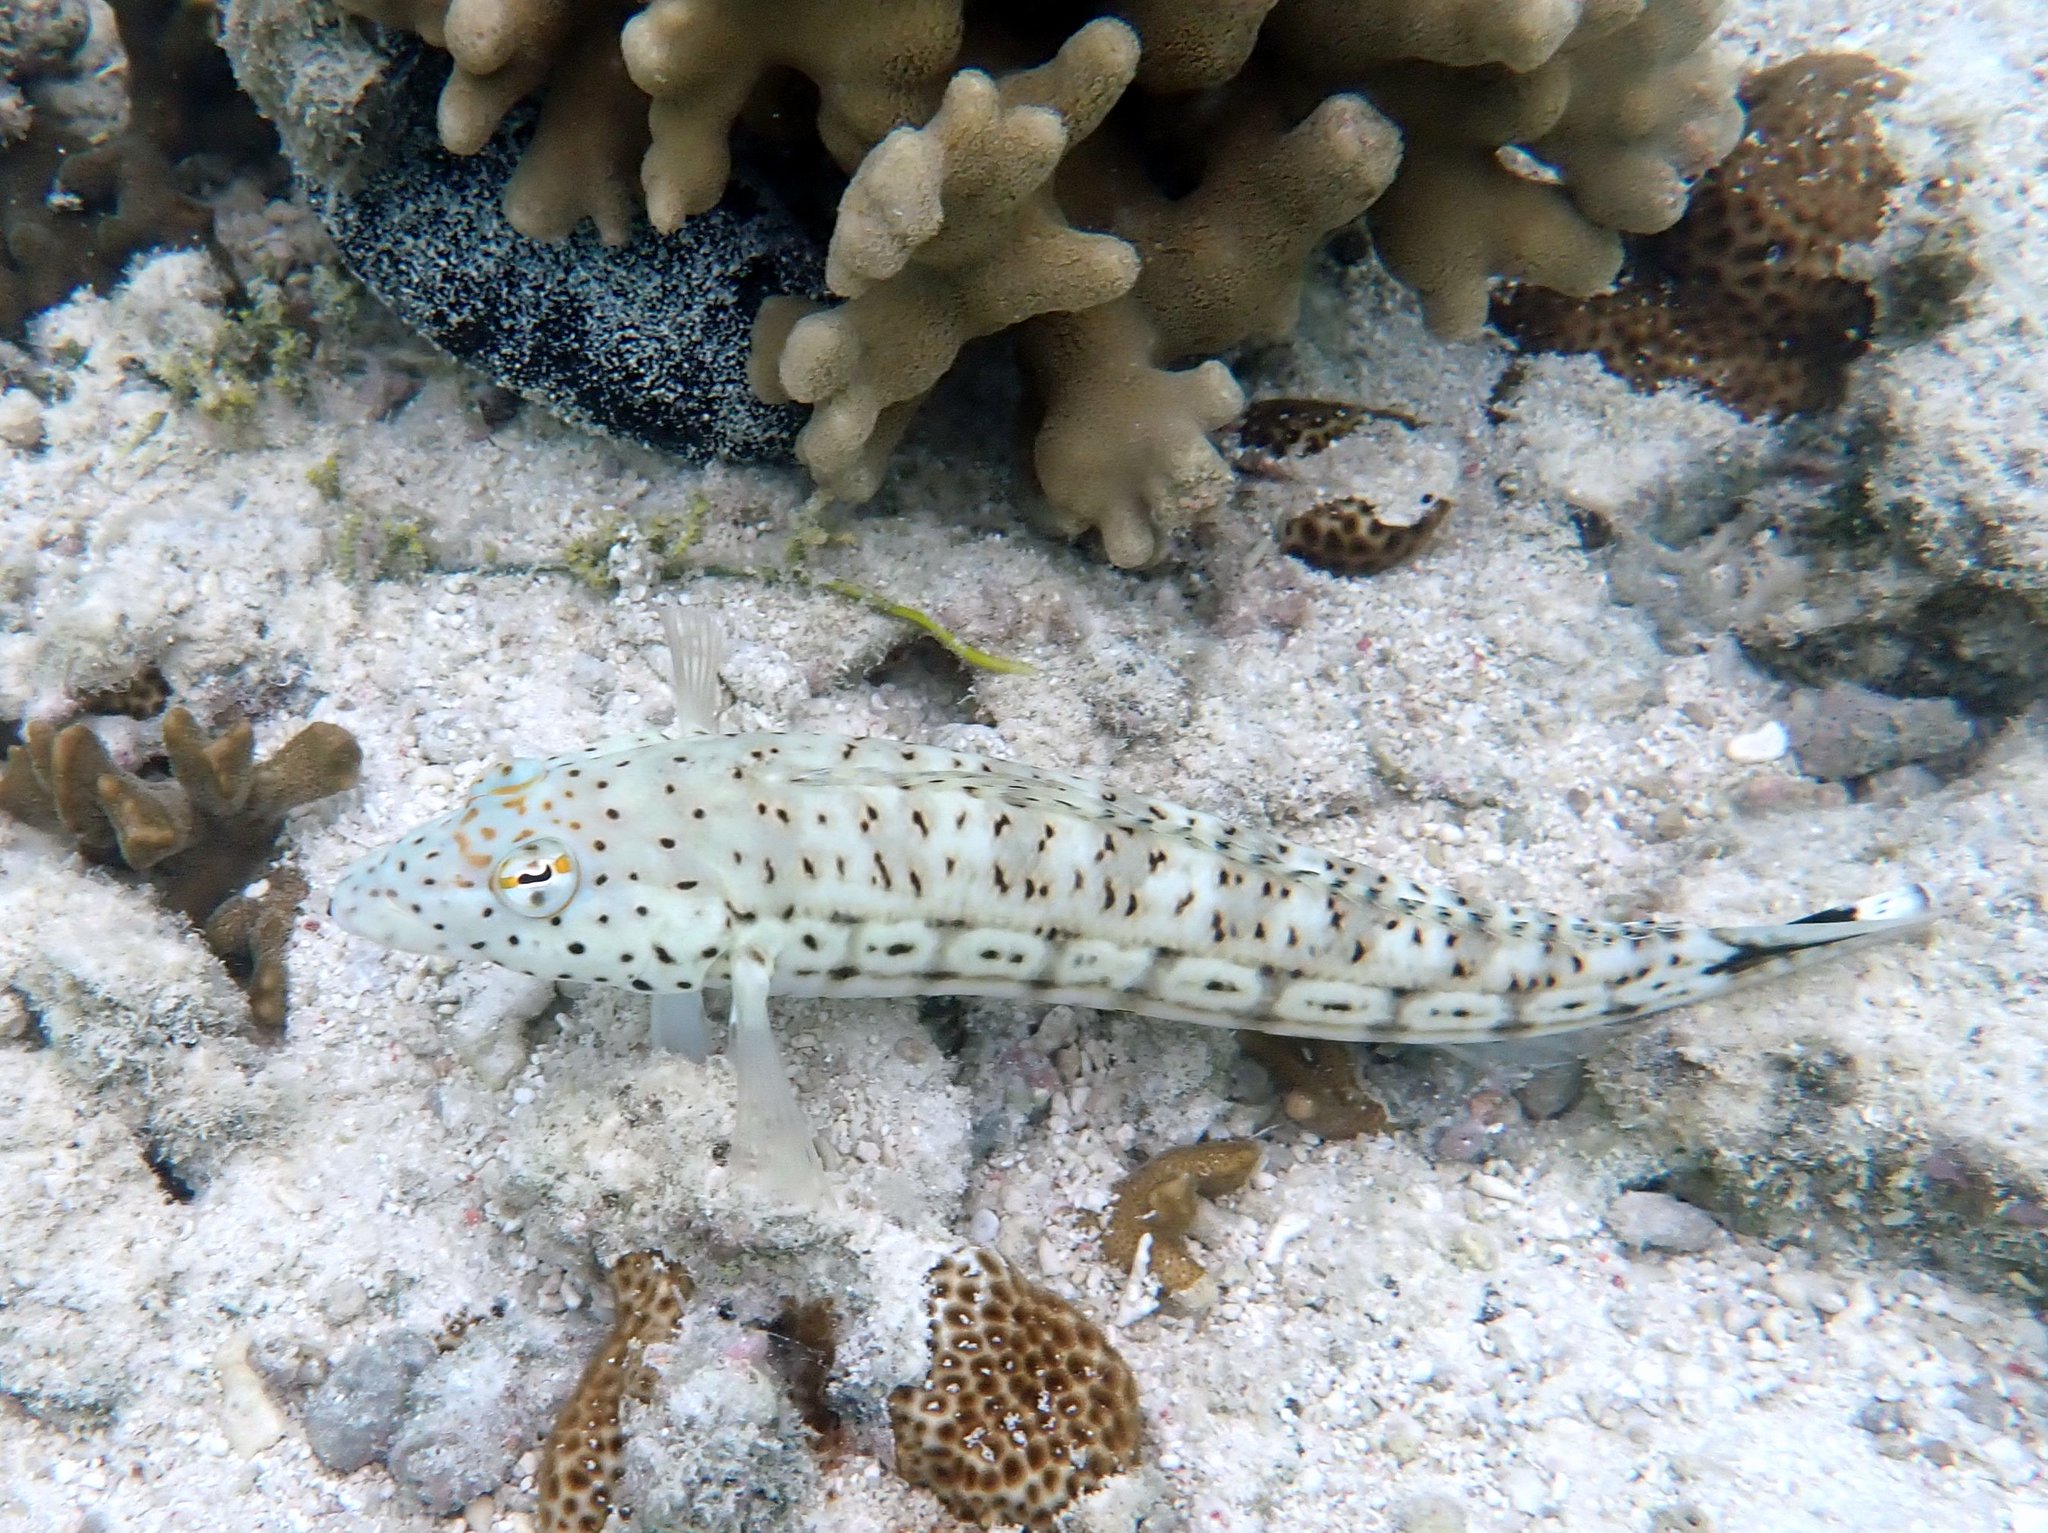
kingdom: Animalia
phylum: Chordata
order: Perciformes
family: Pinguipedidae
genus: Parapercis
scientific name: Parapercis queenslandica
